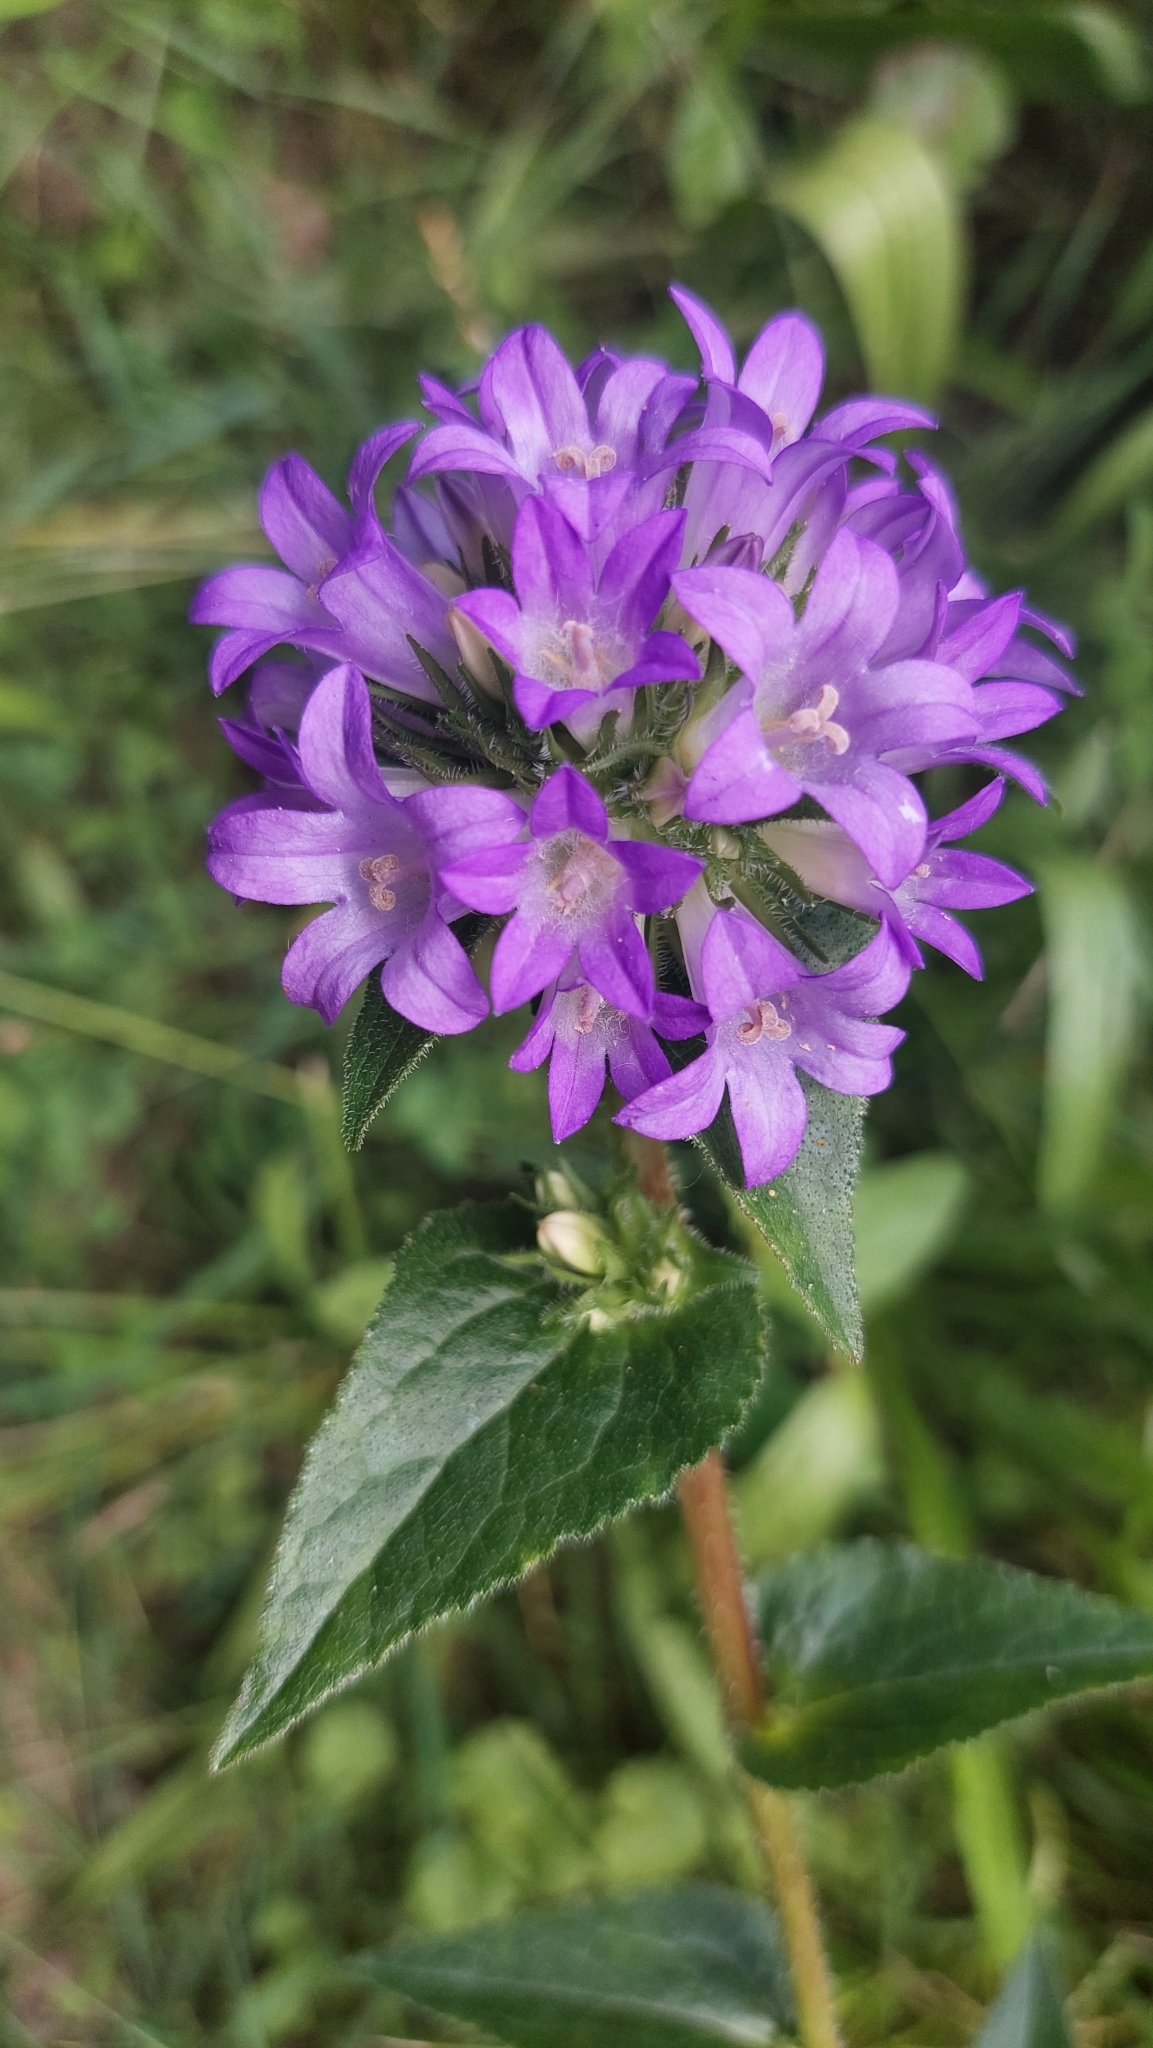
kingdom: Plantae
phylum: Tracheophyta
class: Magnoliopsida
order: Asterales
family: Campanulaceae
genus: Campanula
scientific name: Campanula glomerata
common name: Clustered bellflower
